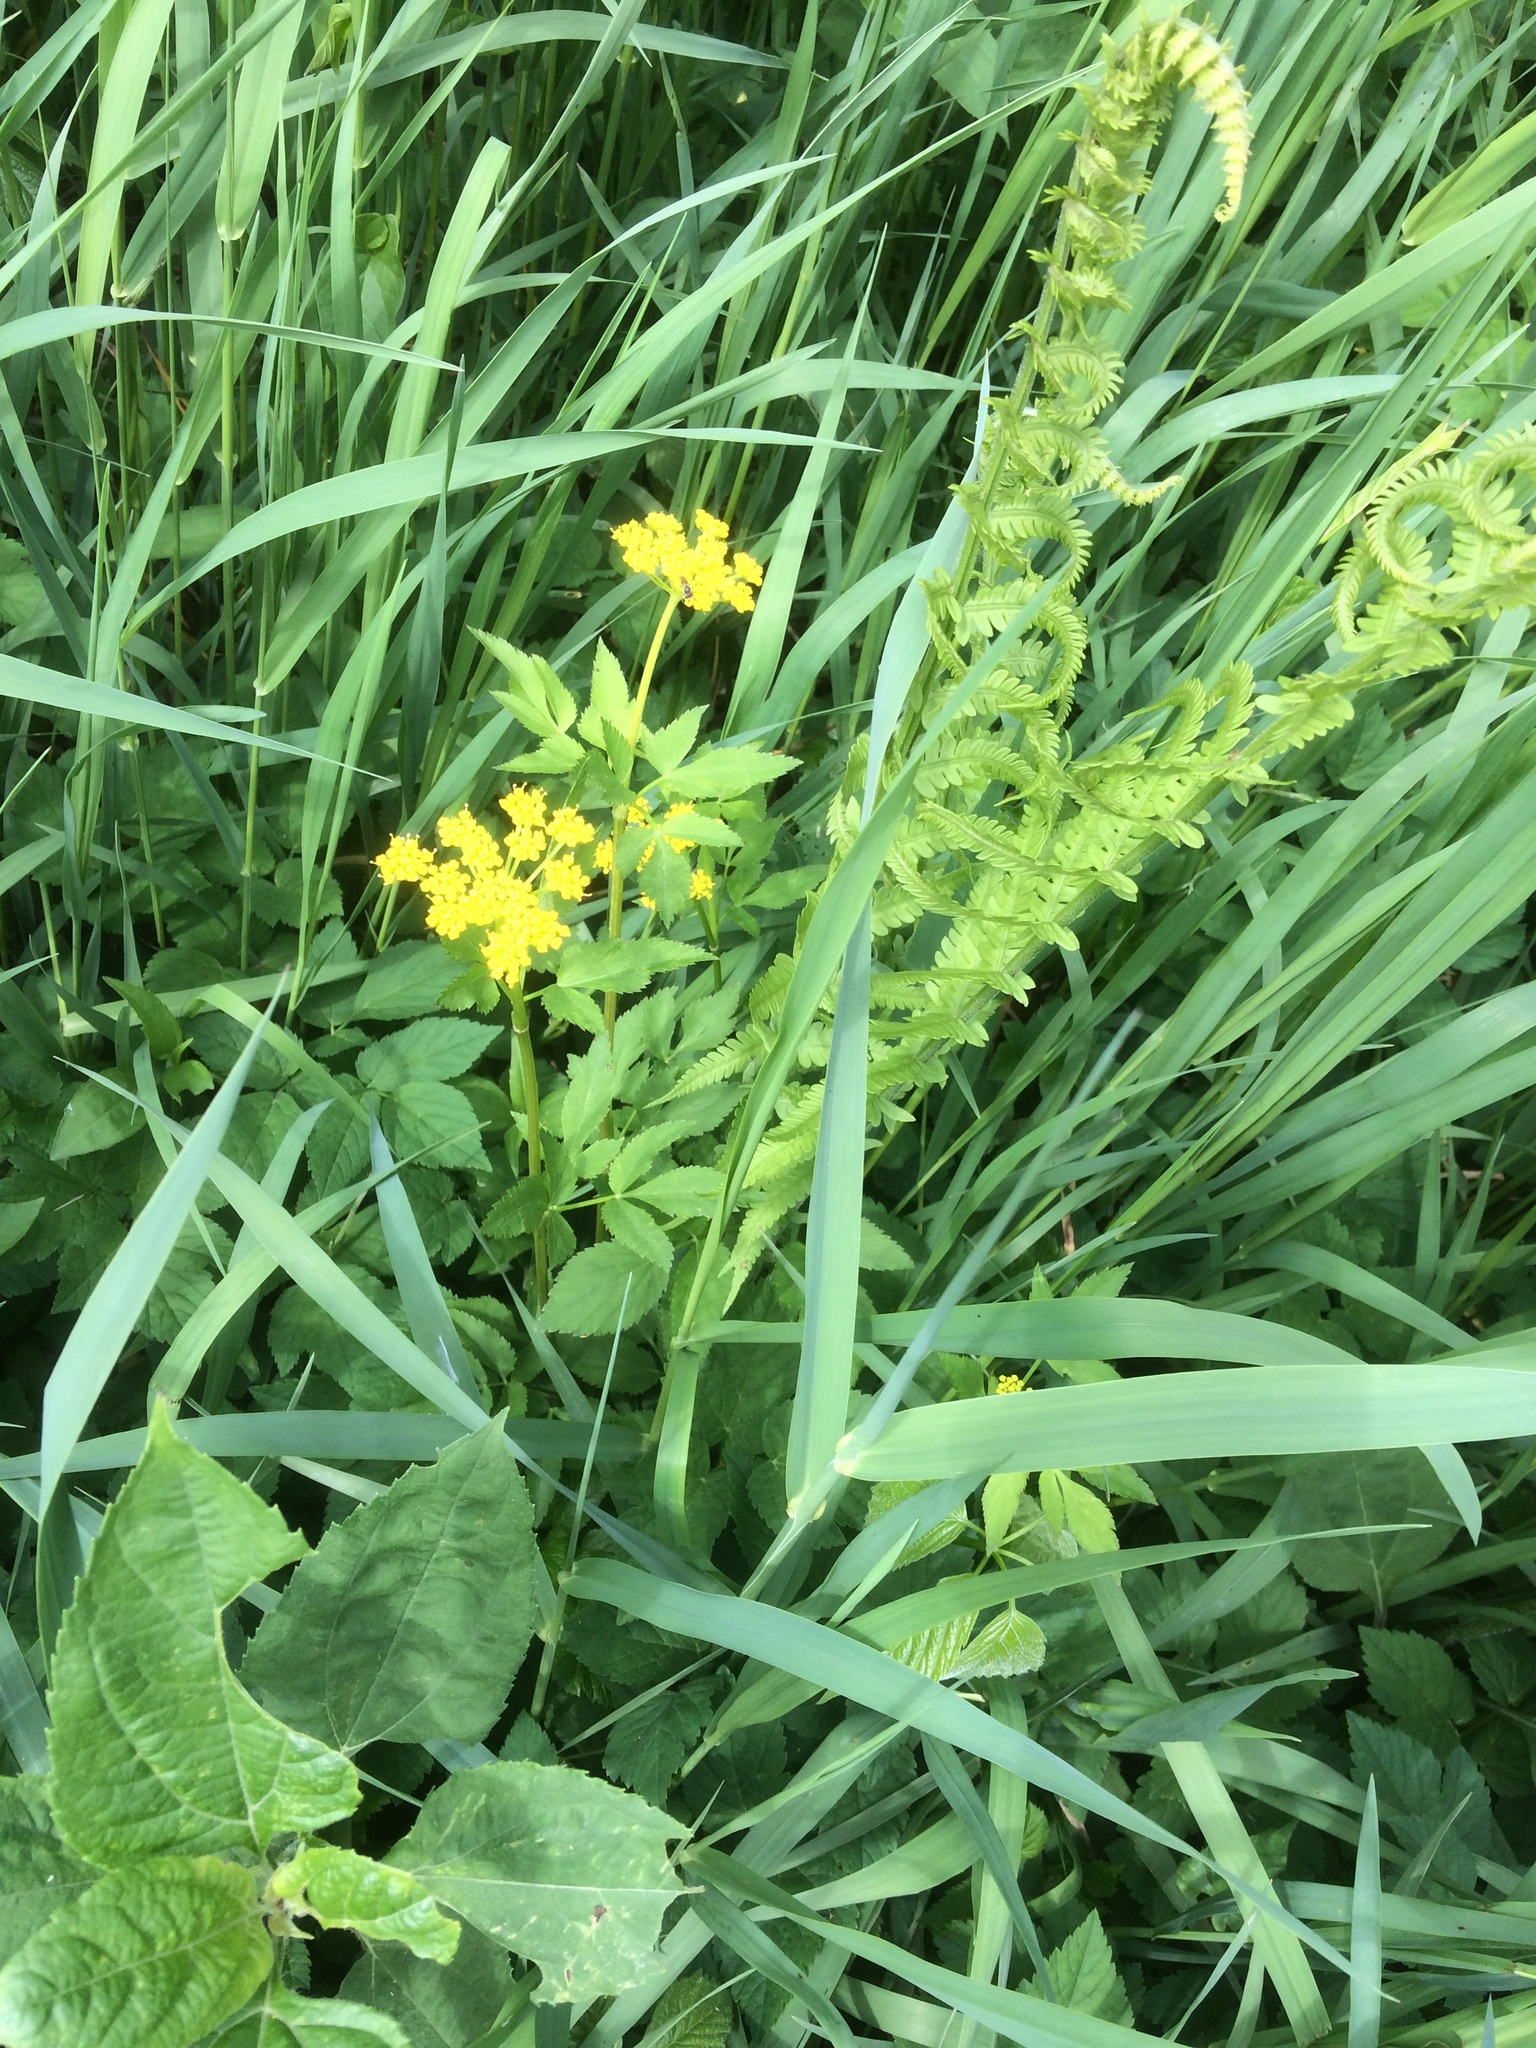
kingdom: Plantae
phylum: Tracheophyta
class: Magnoliopsida
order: Apiales
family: Apiaceae
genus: Zizia
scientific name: Zizia aurea
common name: Golden alexanders
